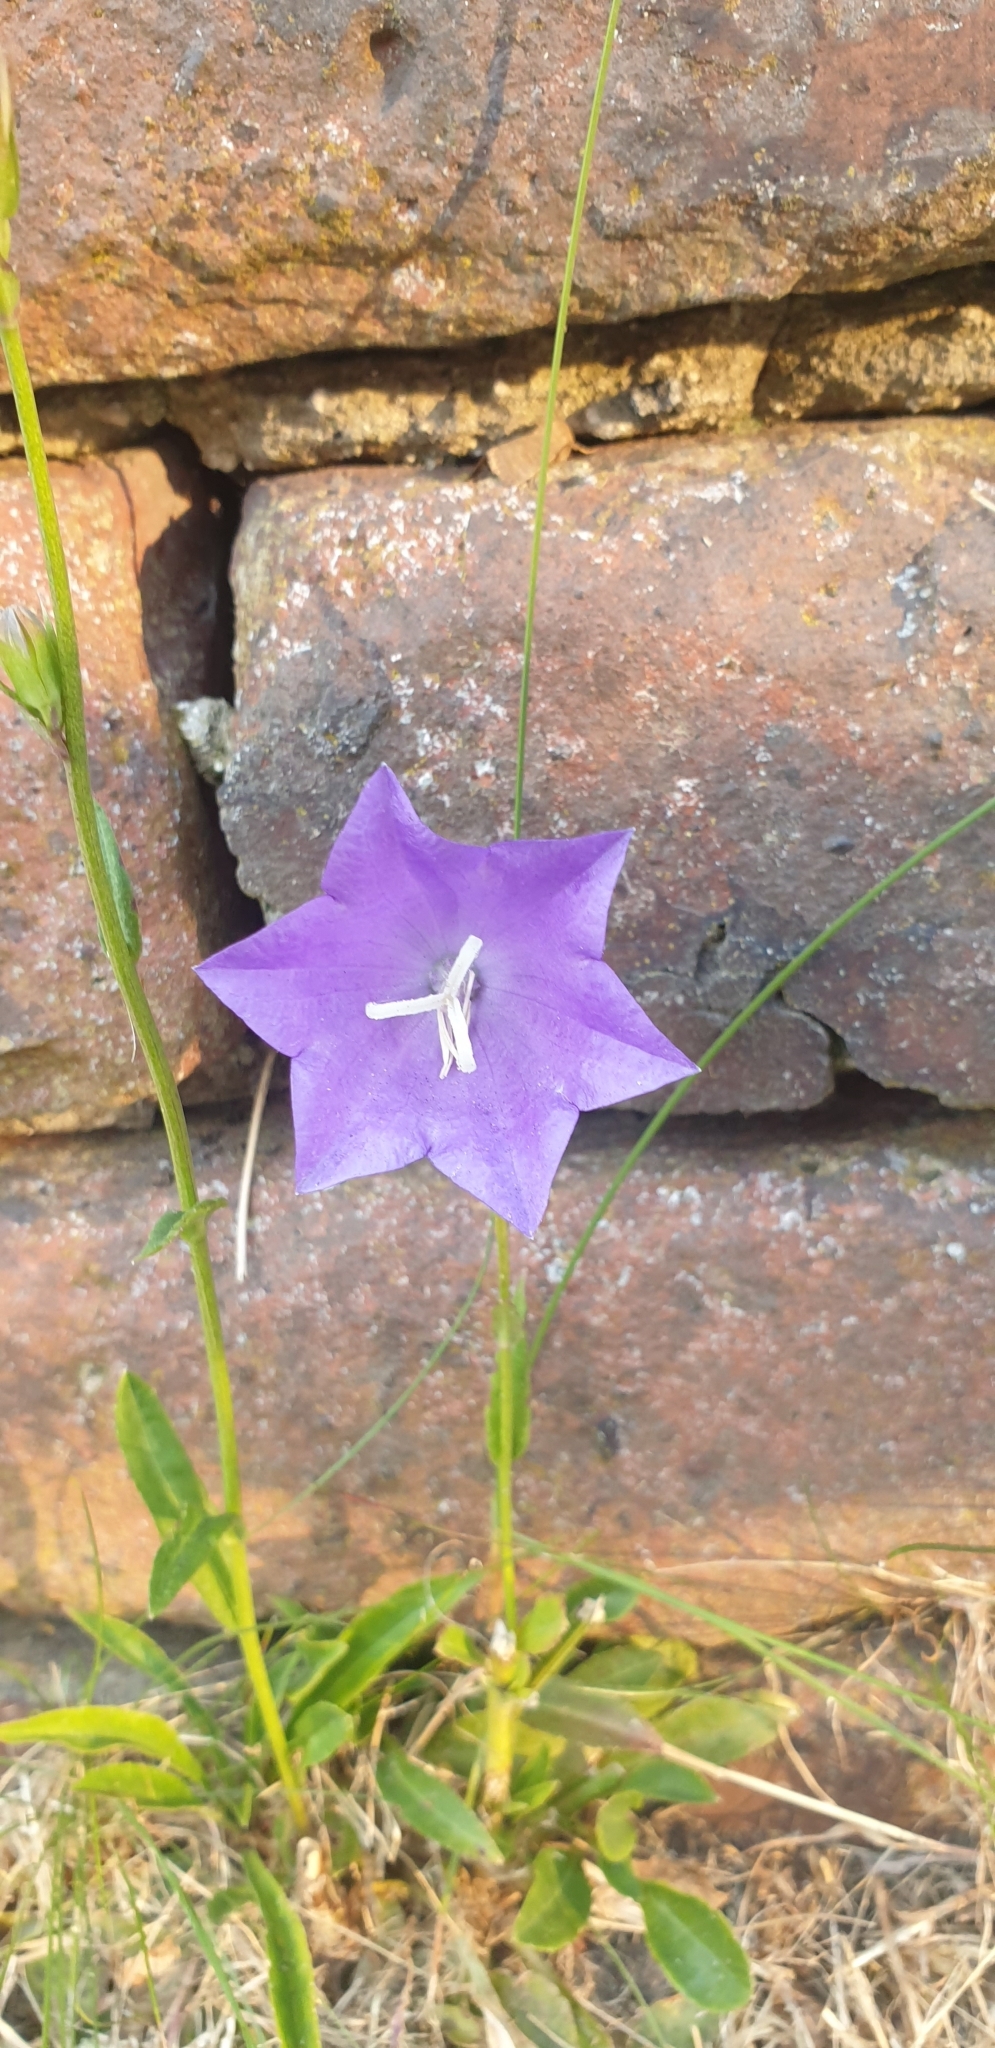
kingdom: Plantae
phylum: Tracheophyta
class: Magnoliopsida
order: Asterales
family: Campanulaceae
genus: Campanula
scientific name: Campanula persicifolia
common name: Peach-leaved bellflower
